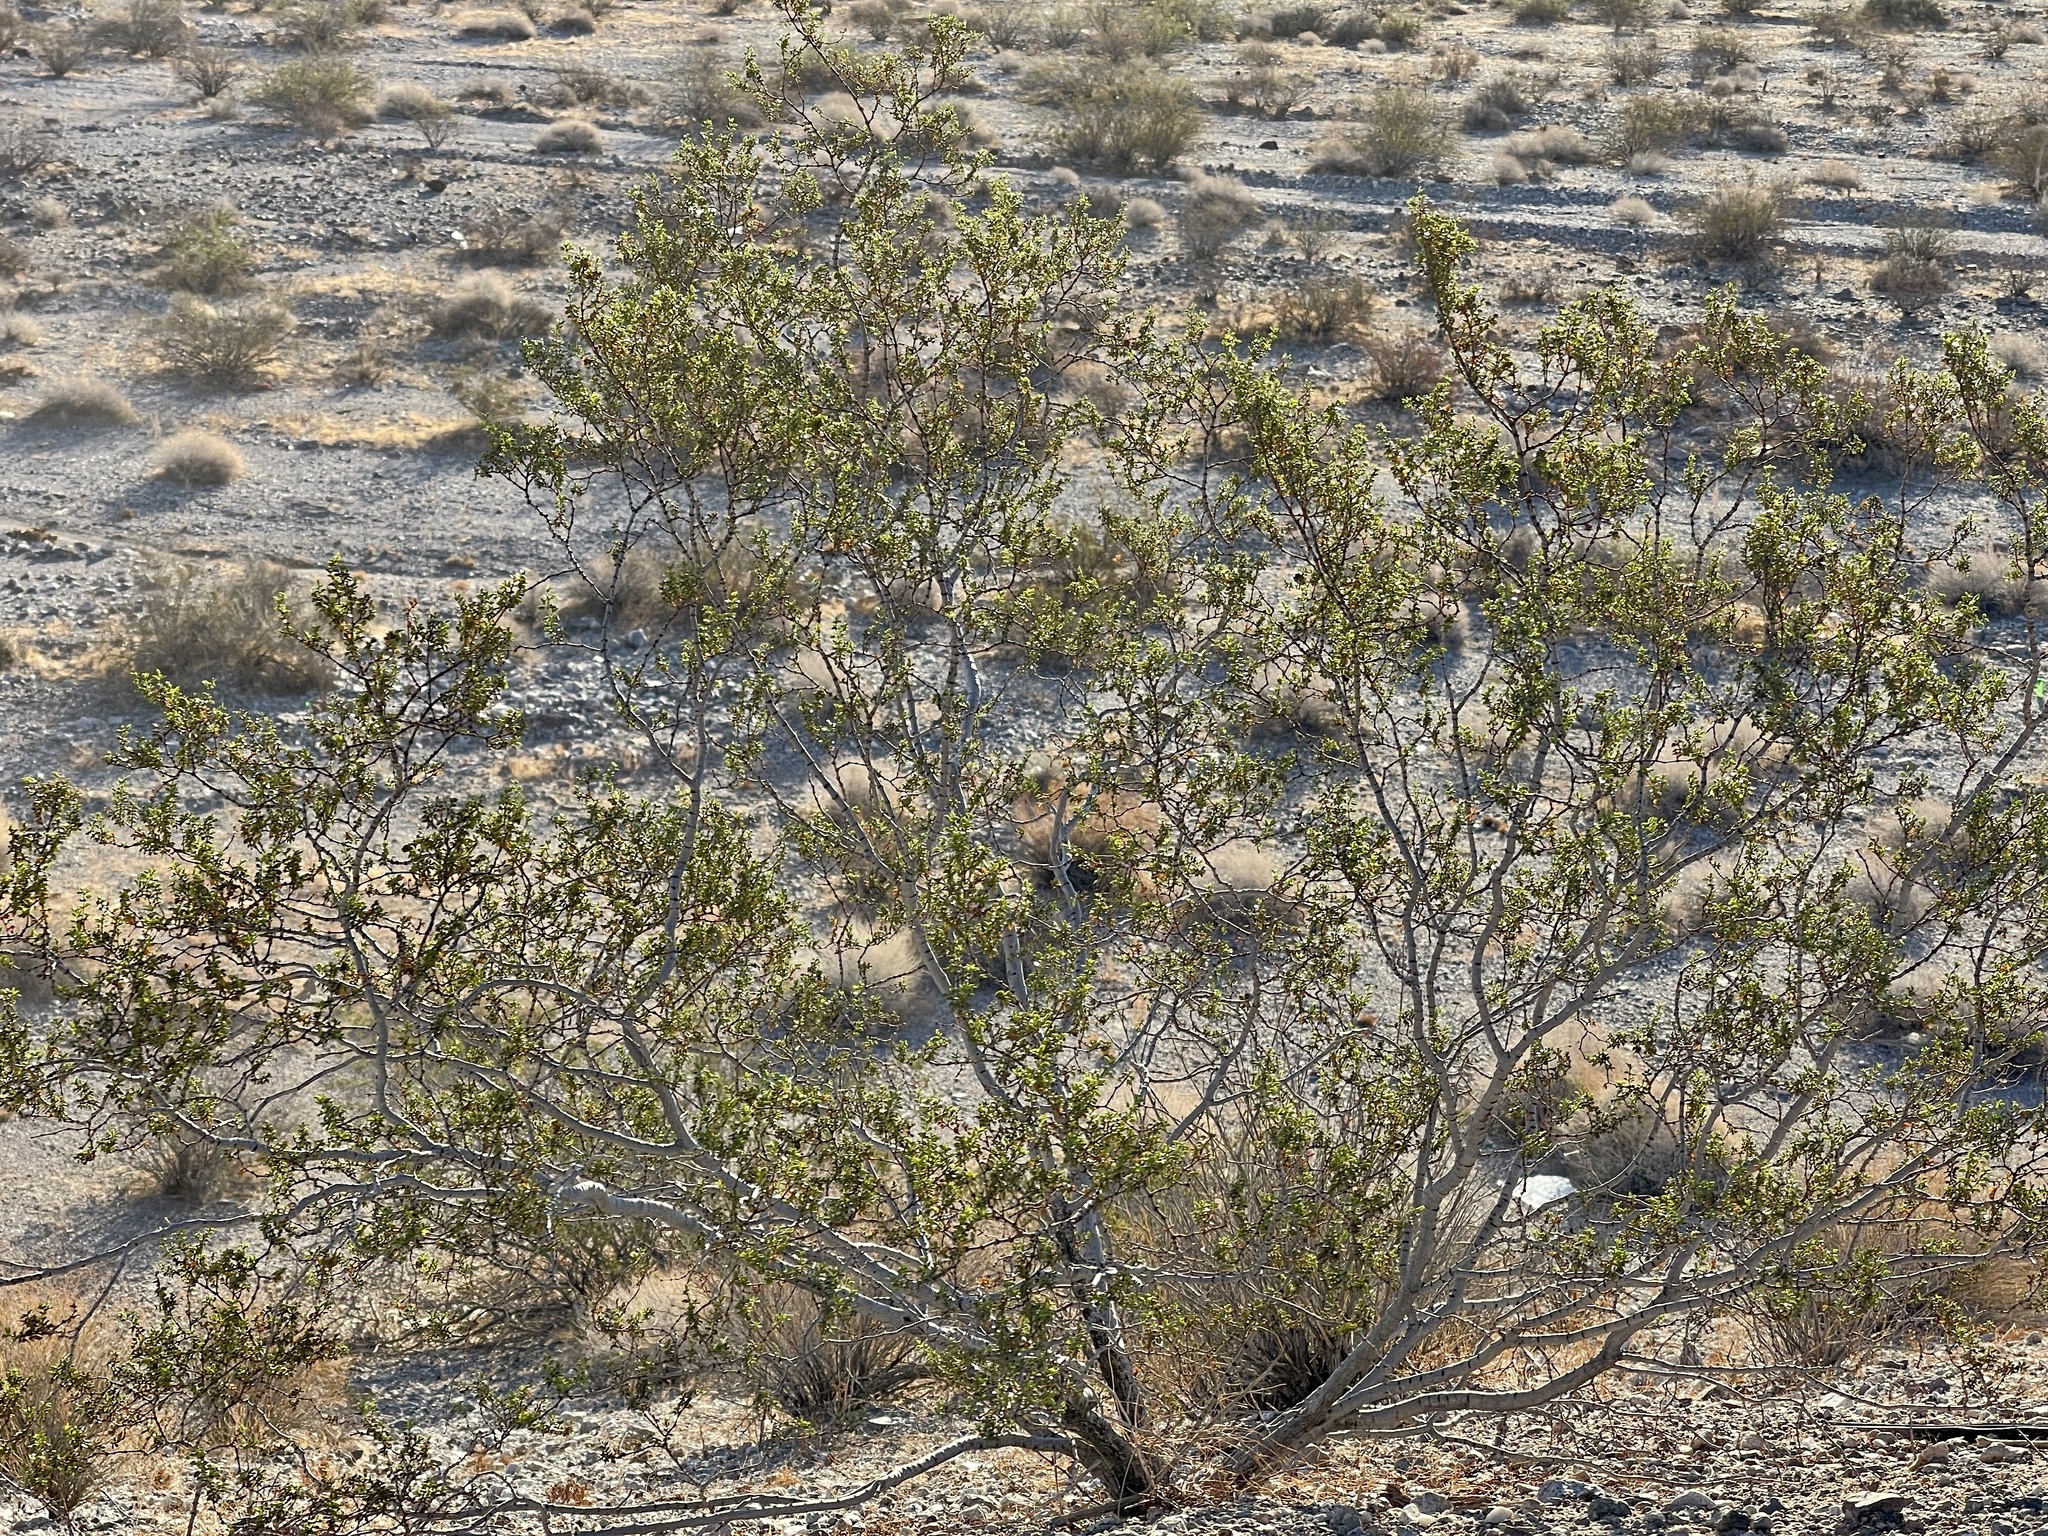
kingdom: Plantae
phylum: Tracheophyta
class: Magnoliopsida
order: Zygophyllales
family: Zygophyllaceae
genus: Larrea
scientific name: Larrea tridentata
